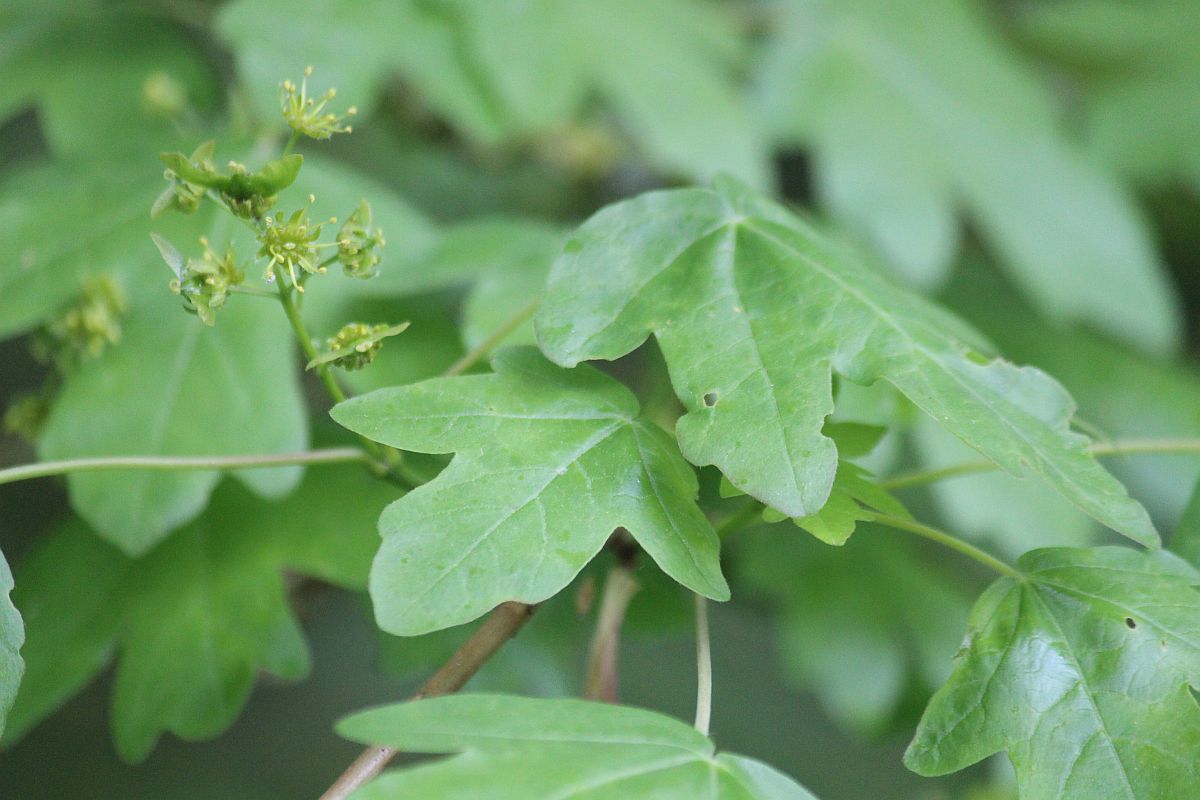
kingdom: Plantae
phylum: Tracheophyta
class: Magnoliopsida
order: Sapindales
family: Sapindaceae
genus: Acer
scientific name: Acer campestre
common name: Field maple
